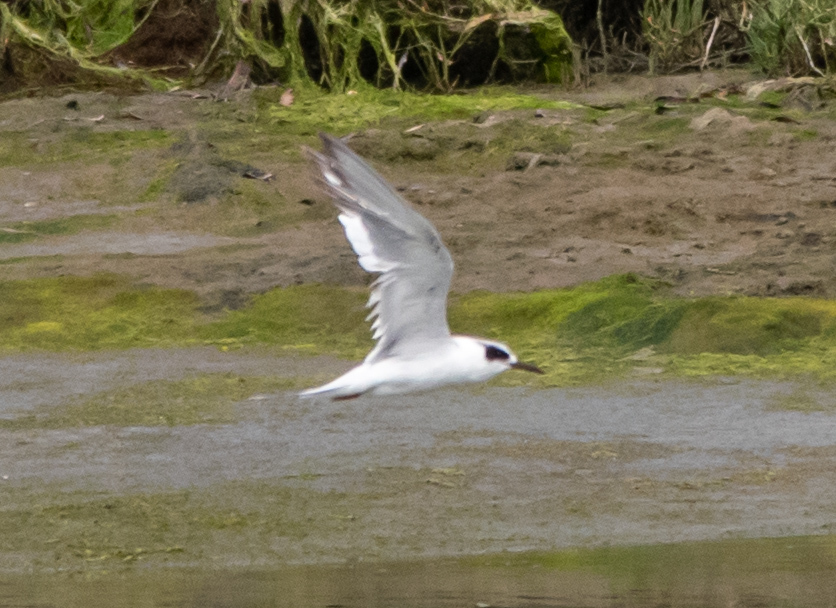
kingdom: Animalia
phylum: Chordata
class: Aves
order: Charadriiformes
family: Laridae
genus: Sterna
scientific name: Sterna forsteri
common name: Forster's tern
